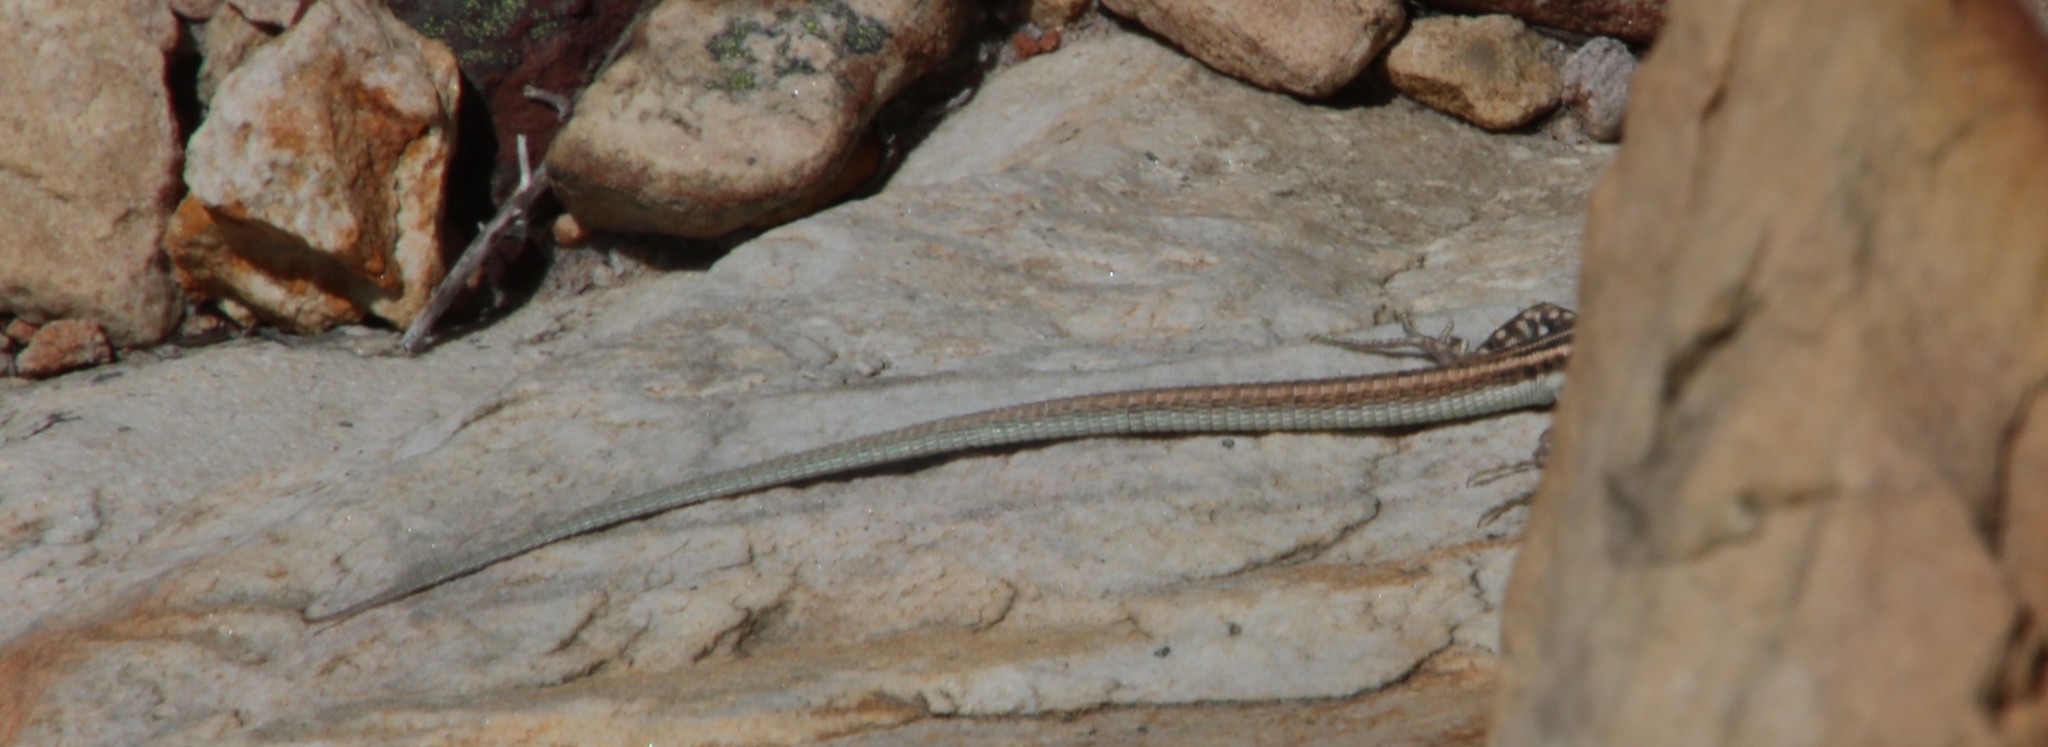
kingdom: Animalia
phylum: Chordata
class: Squamata
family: Lacertidae
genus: Pedioplanis
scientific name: Pedioplanis burchelli
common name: Burchell's sand lizard
